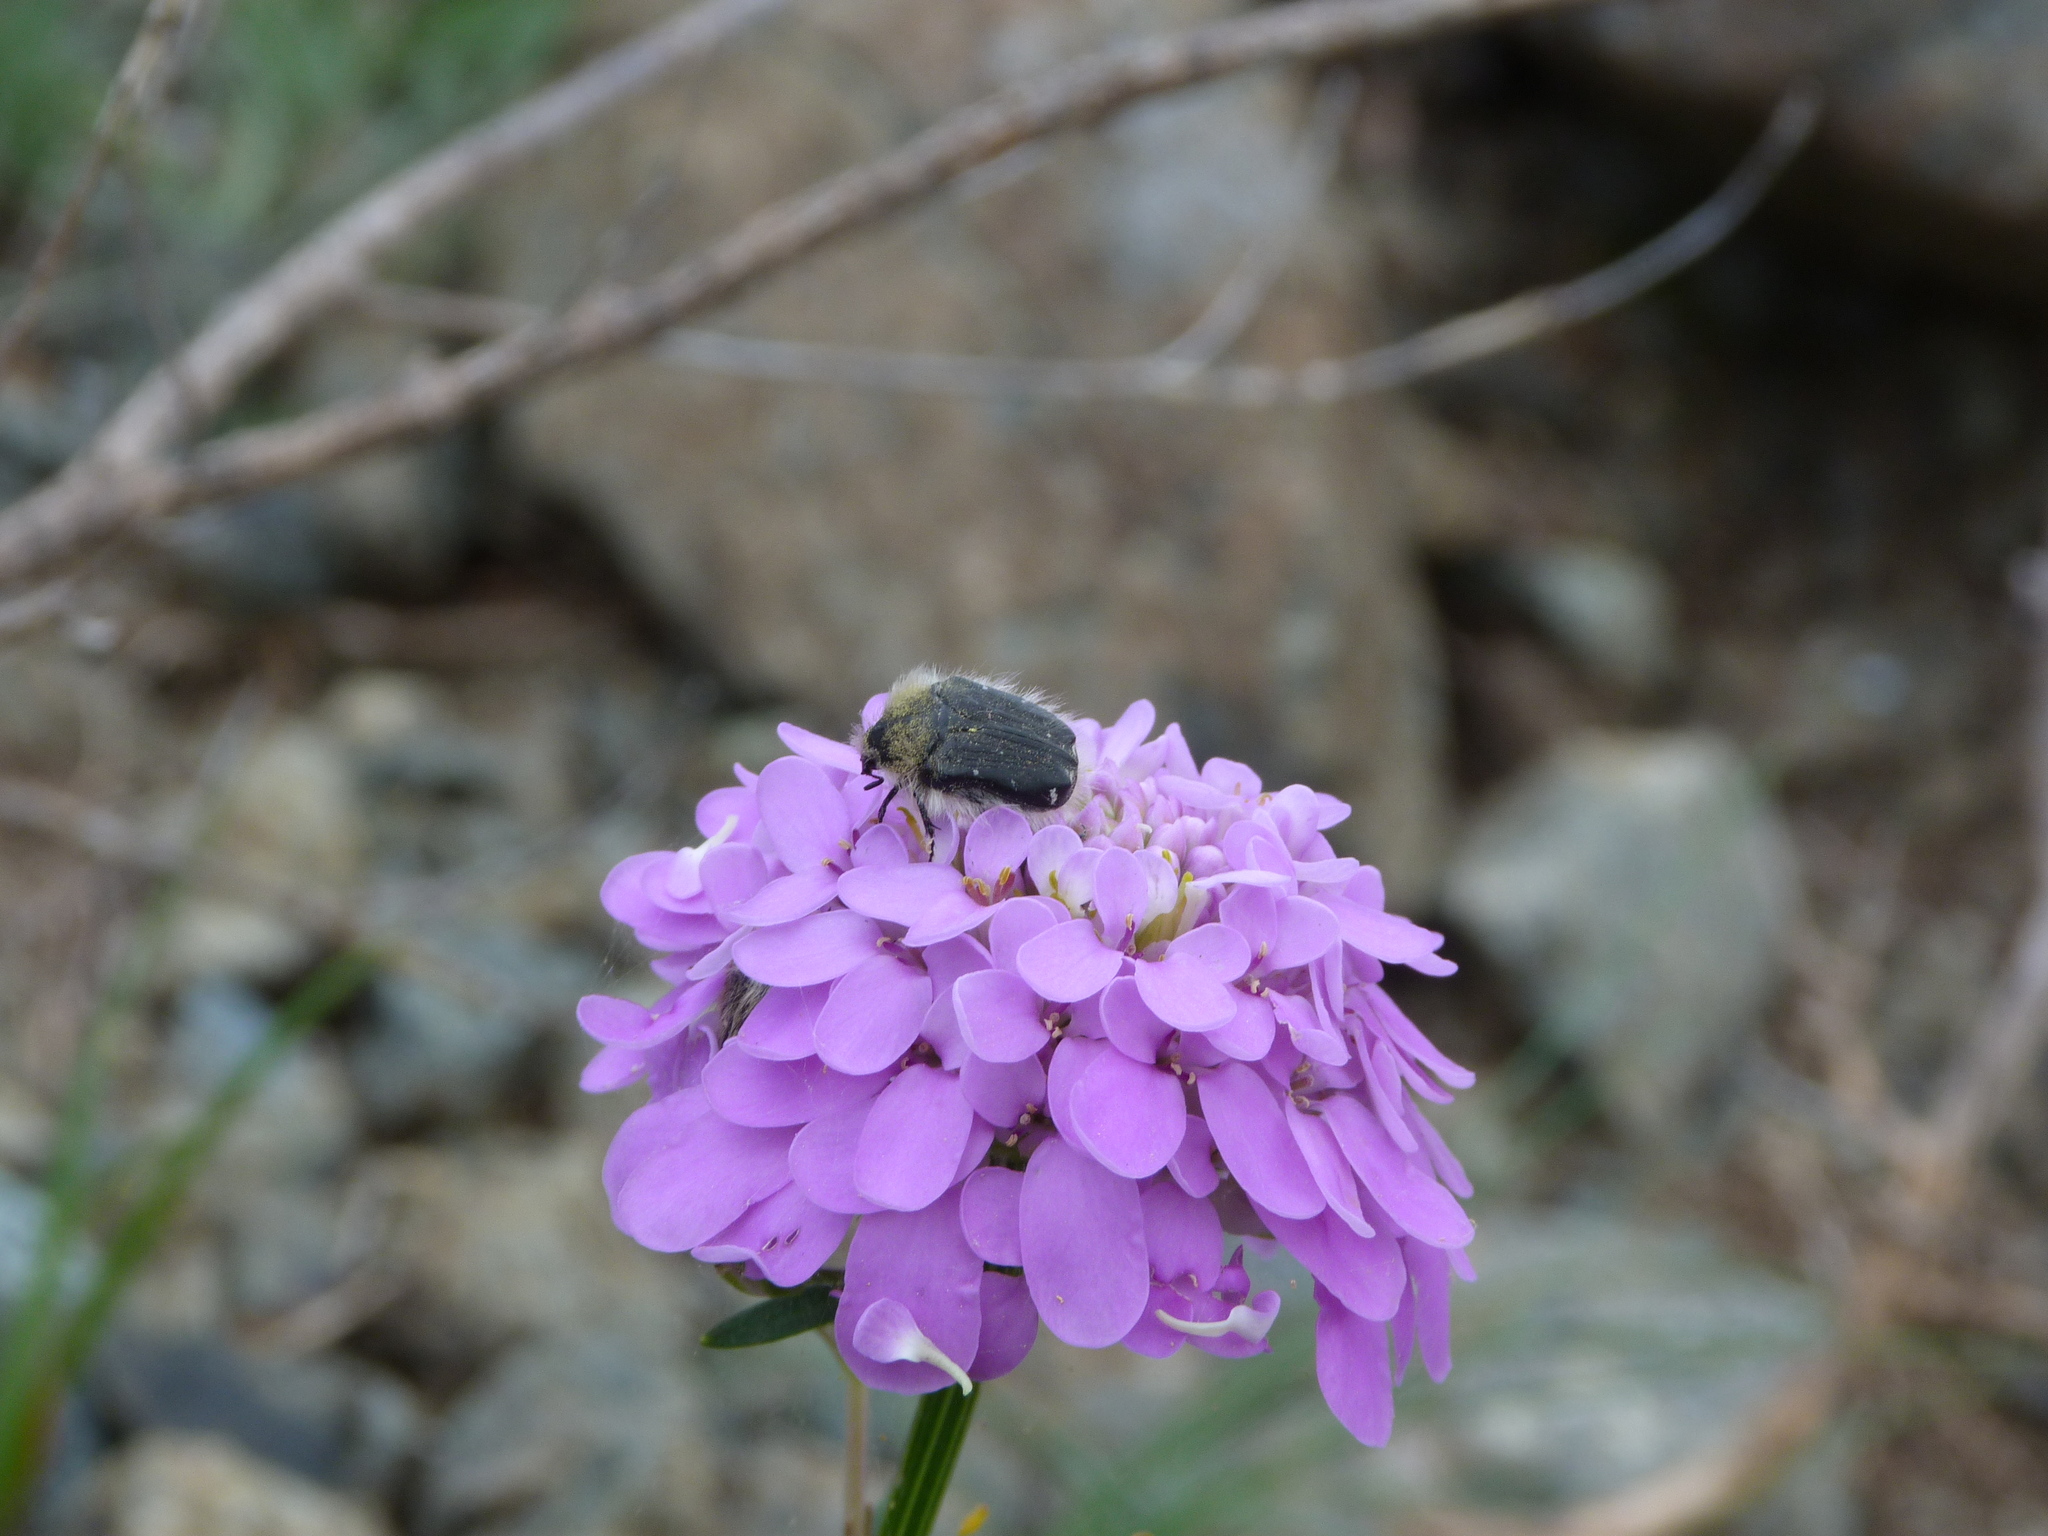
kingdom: Animalia
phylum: Arthropoda
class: Insecta
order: Coleoptera
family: Scarabaeidae
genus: Tropinota
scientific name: Tropinota hirta
